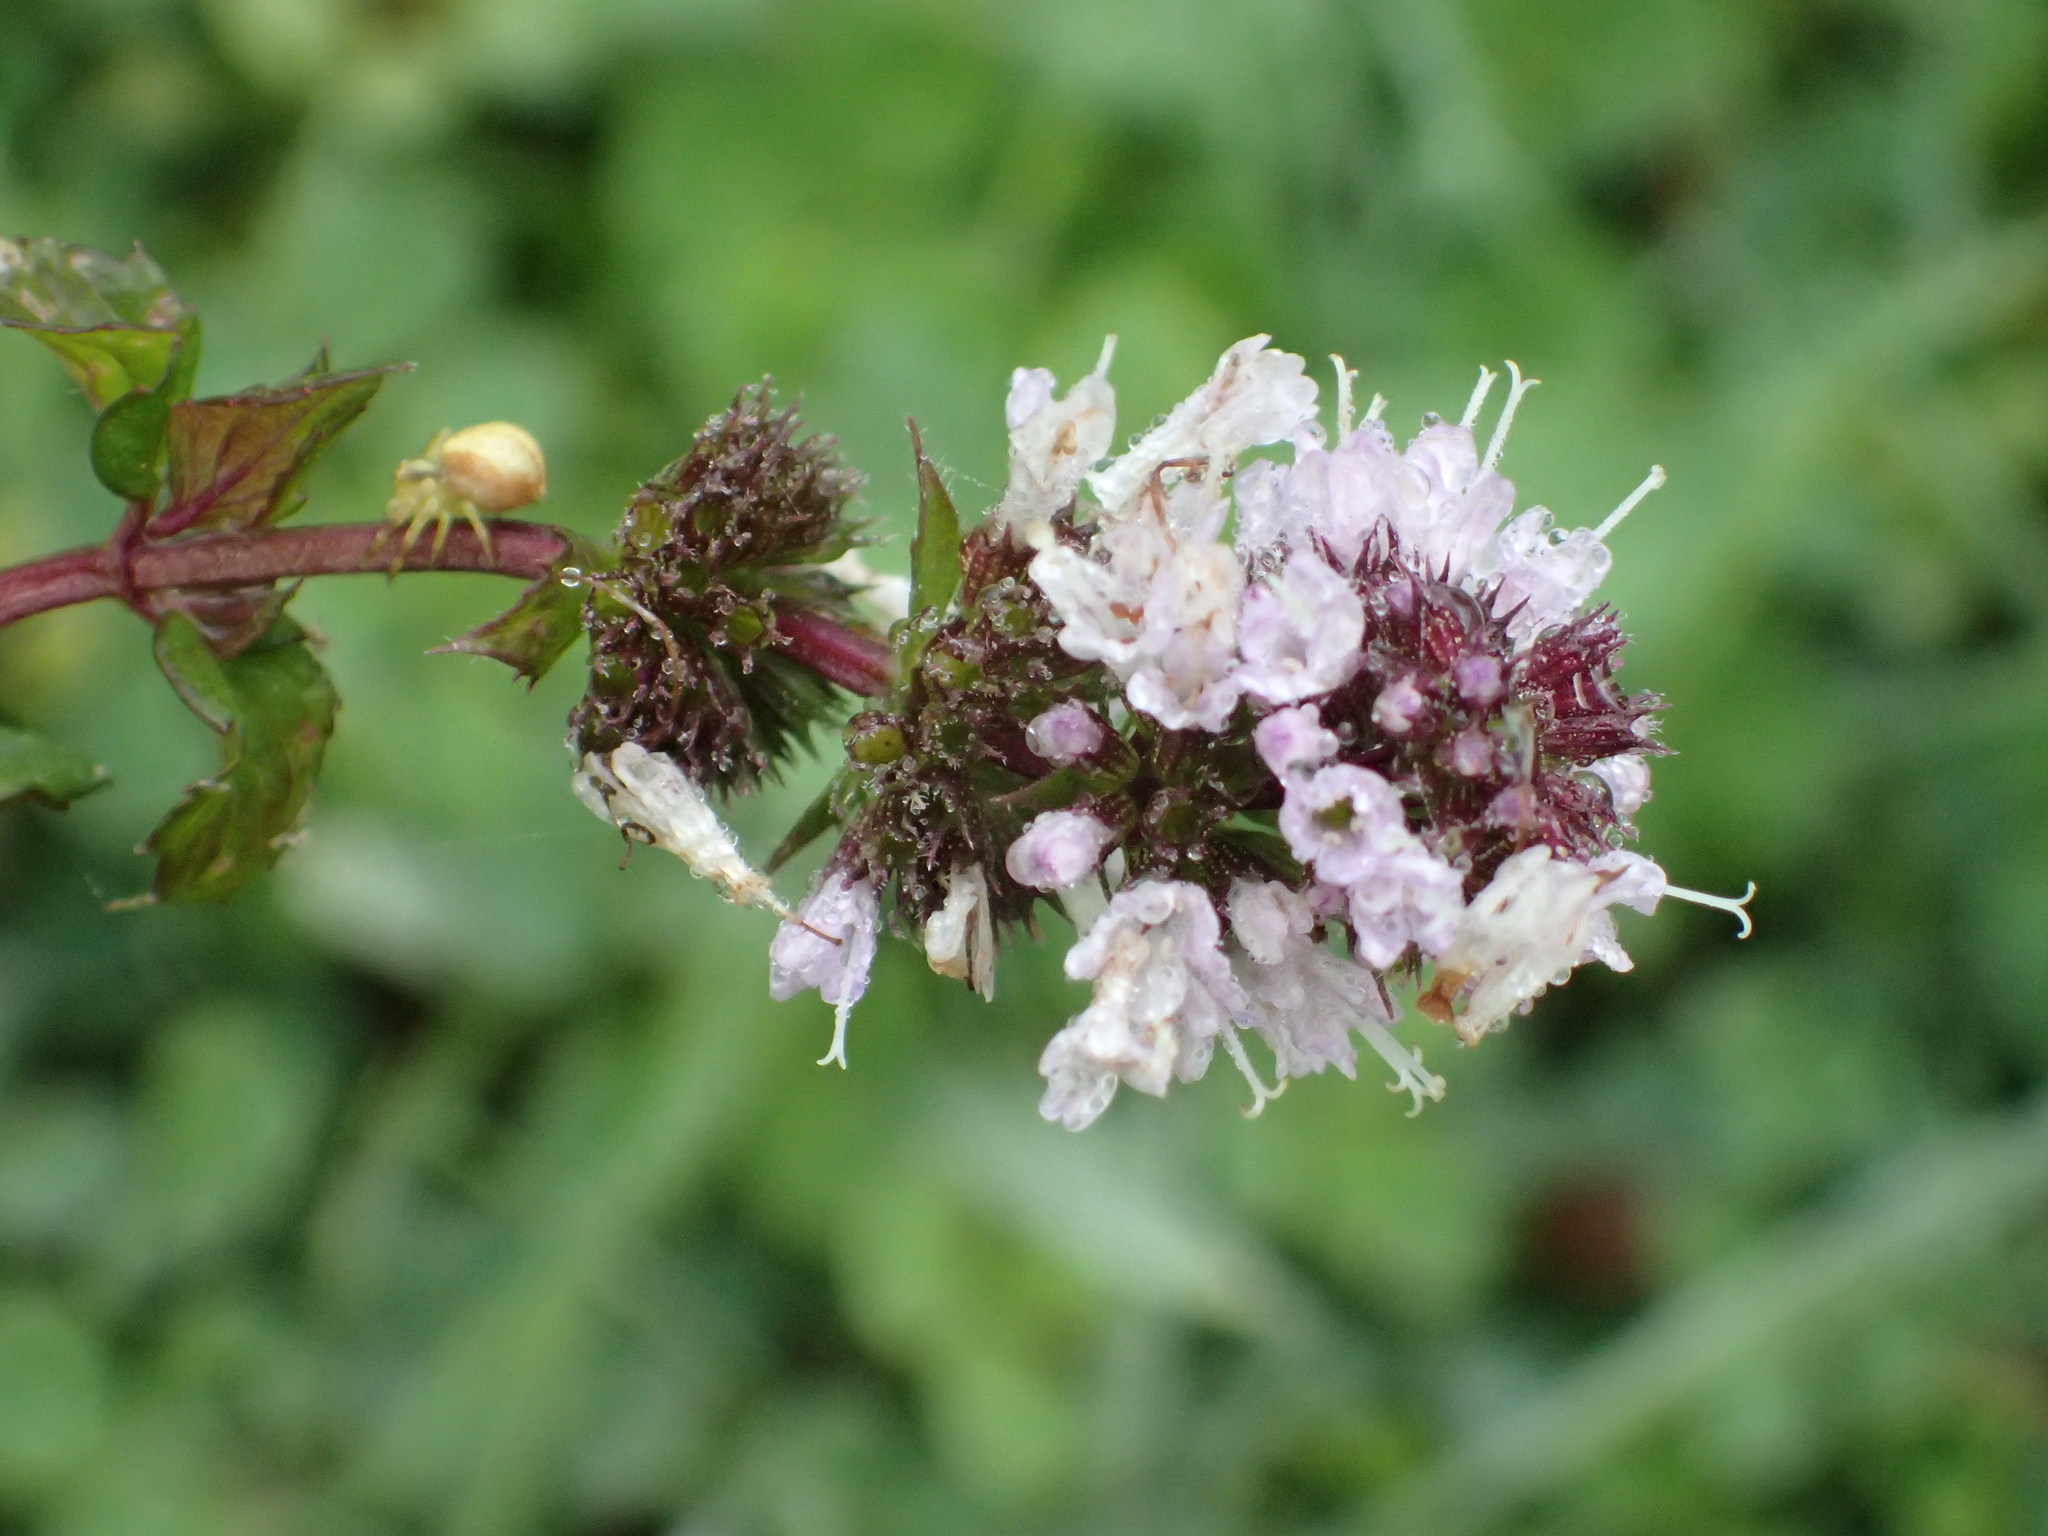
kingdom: Plantae
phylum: Tracheophyta
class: Magnoliopsida
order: Lamiales
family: Lamiaceae
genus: Mentha
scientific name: Mentha piperita
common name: Peppermint
